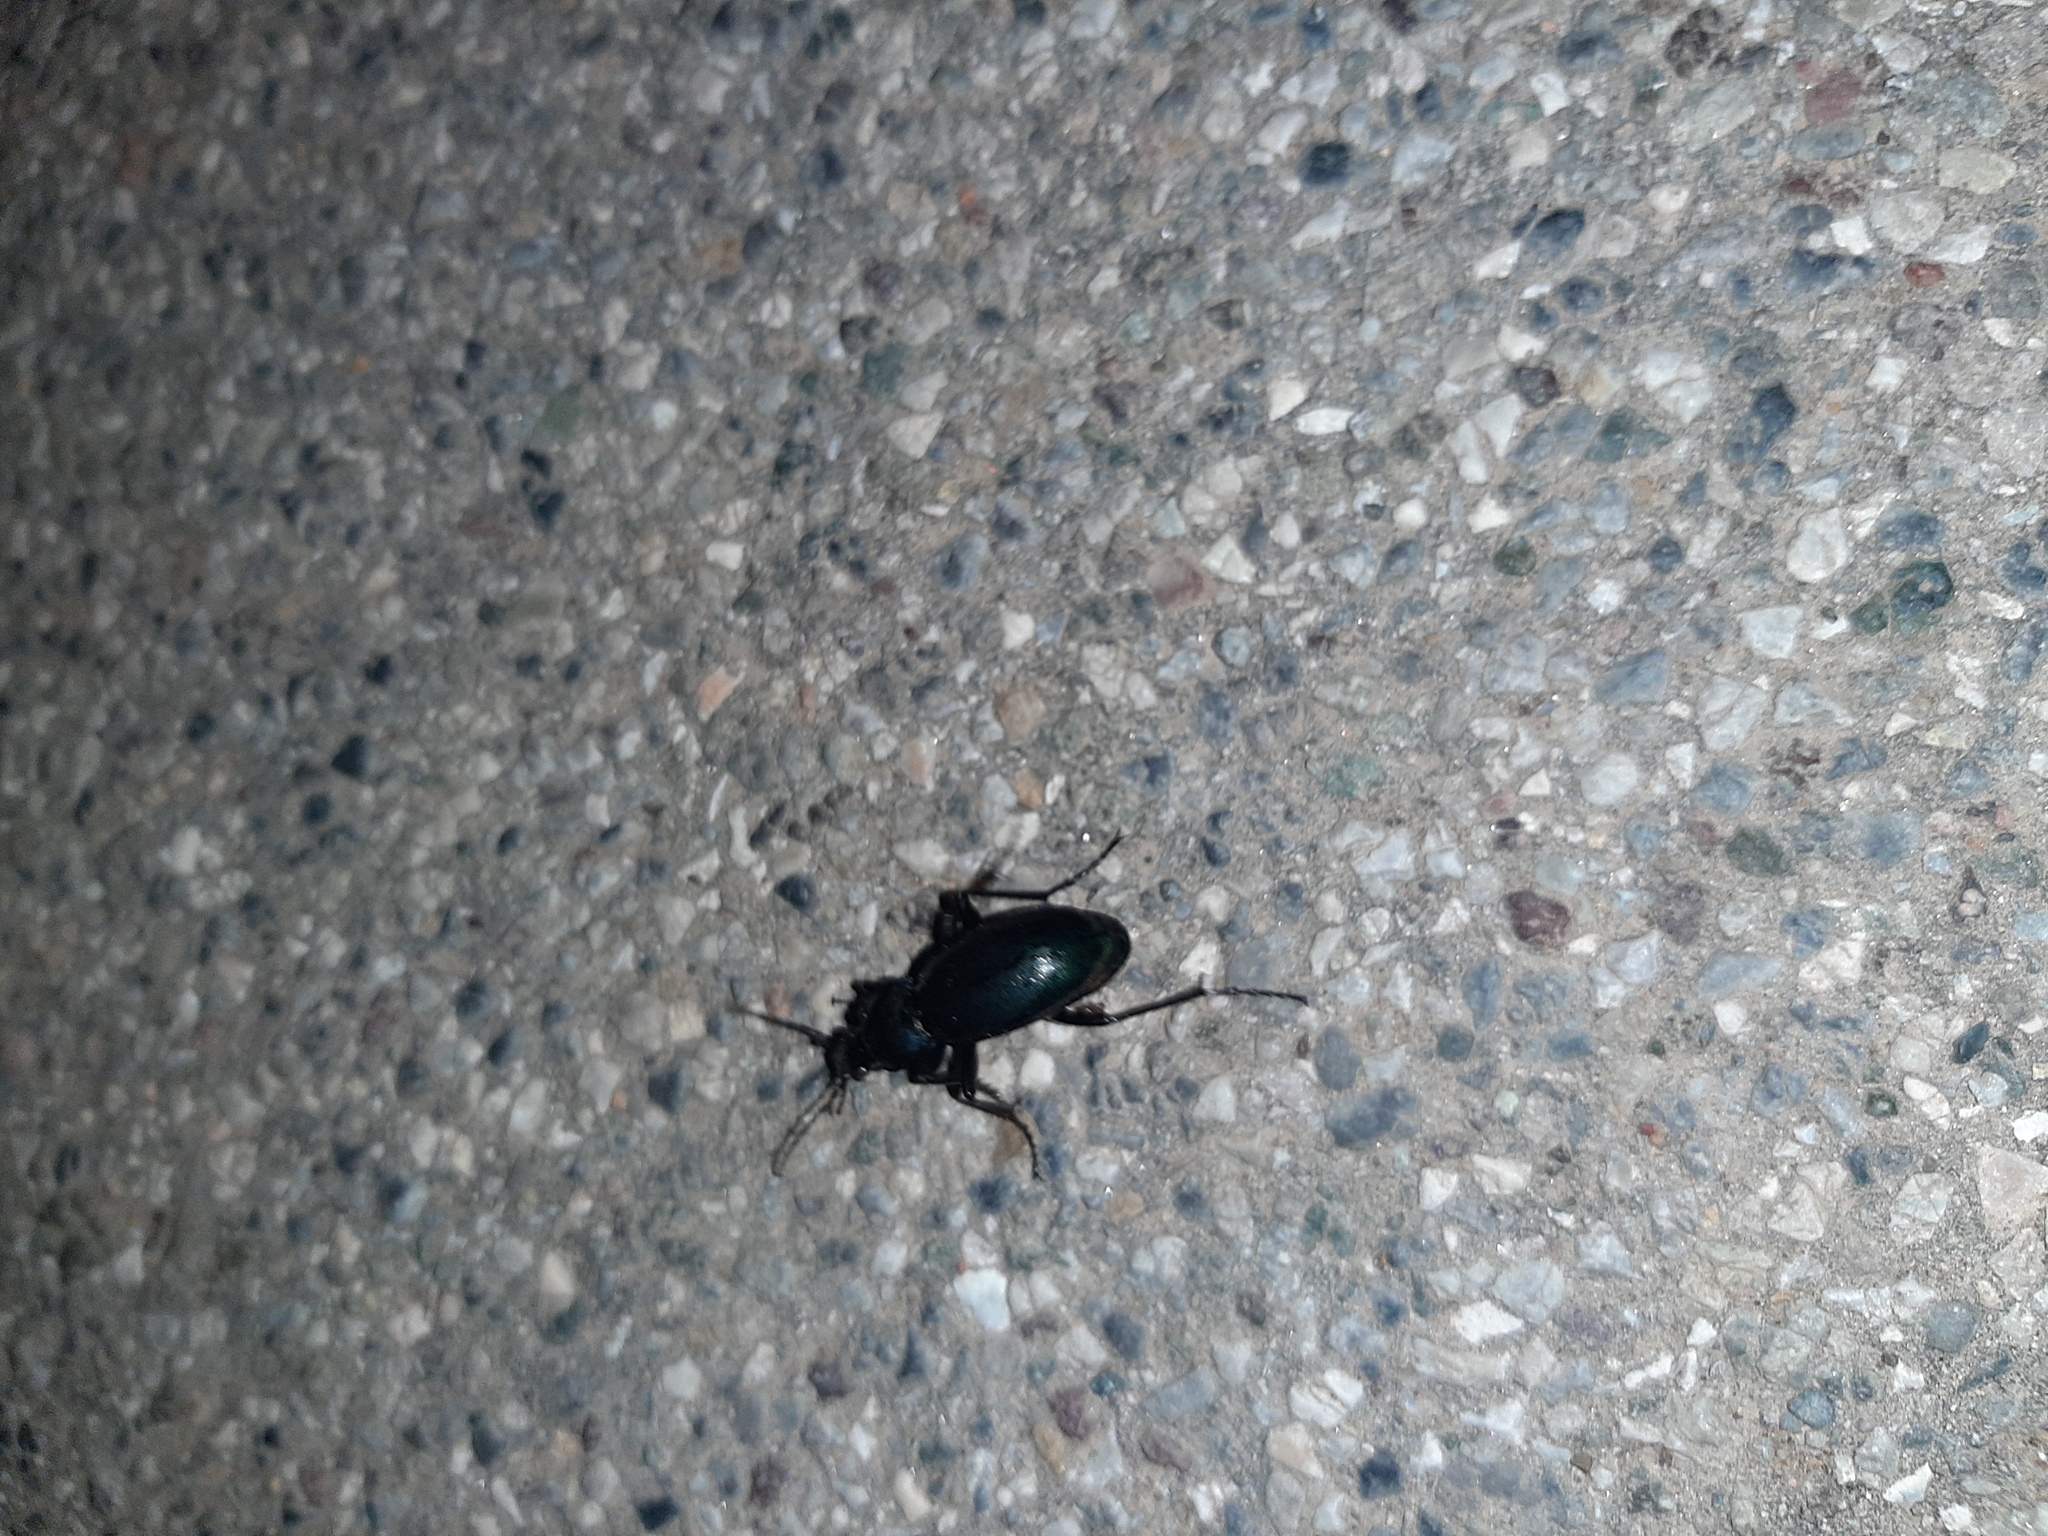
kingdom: Animalia
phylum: Arthropoda
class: Insecta
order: Coleoptera
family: Carabidae
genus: Carabus
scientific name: Carabus germarii
